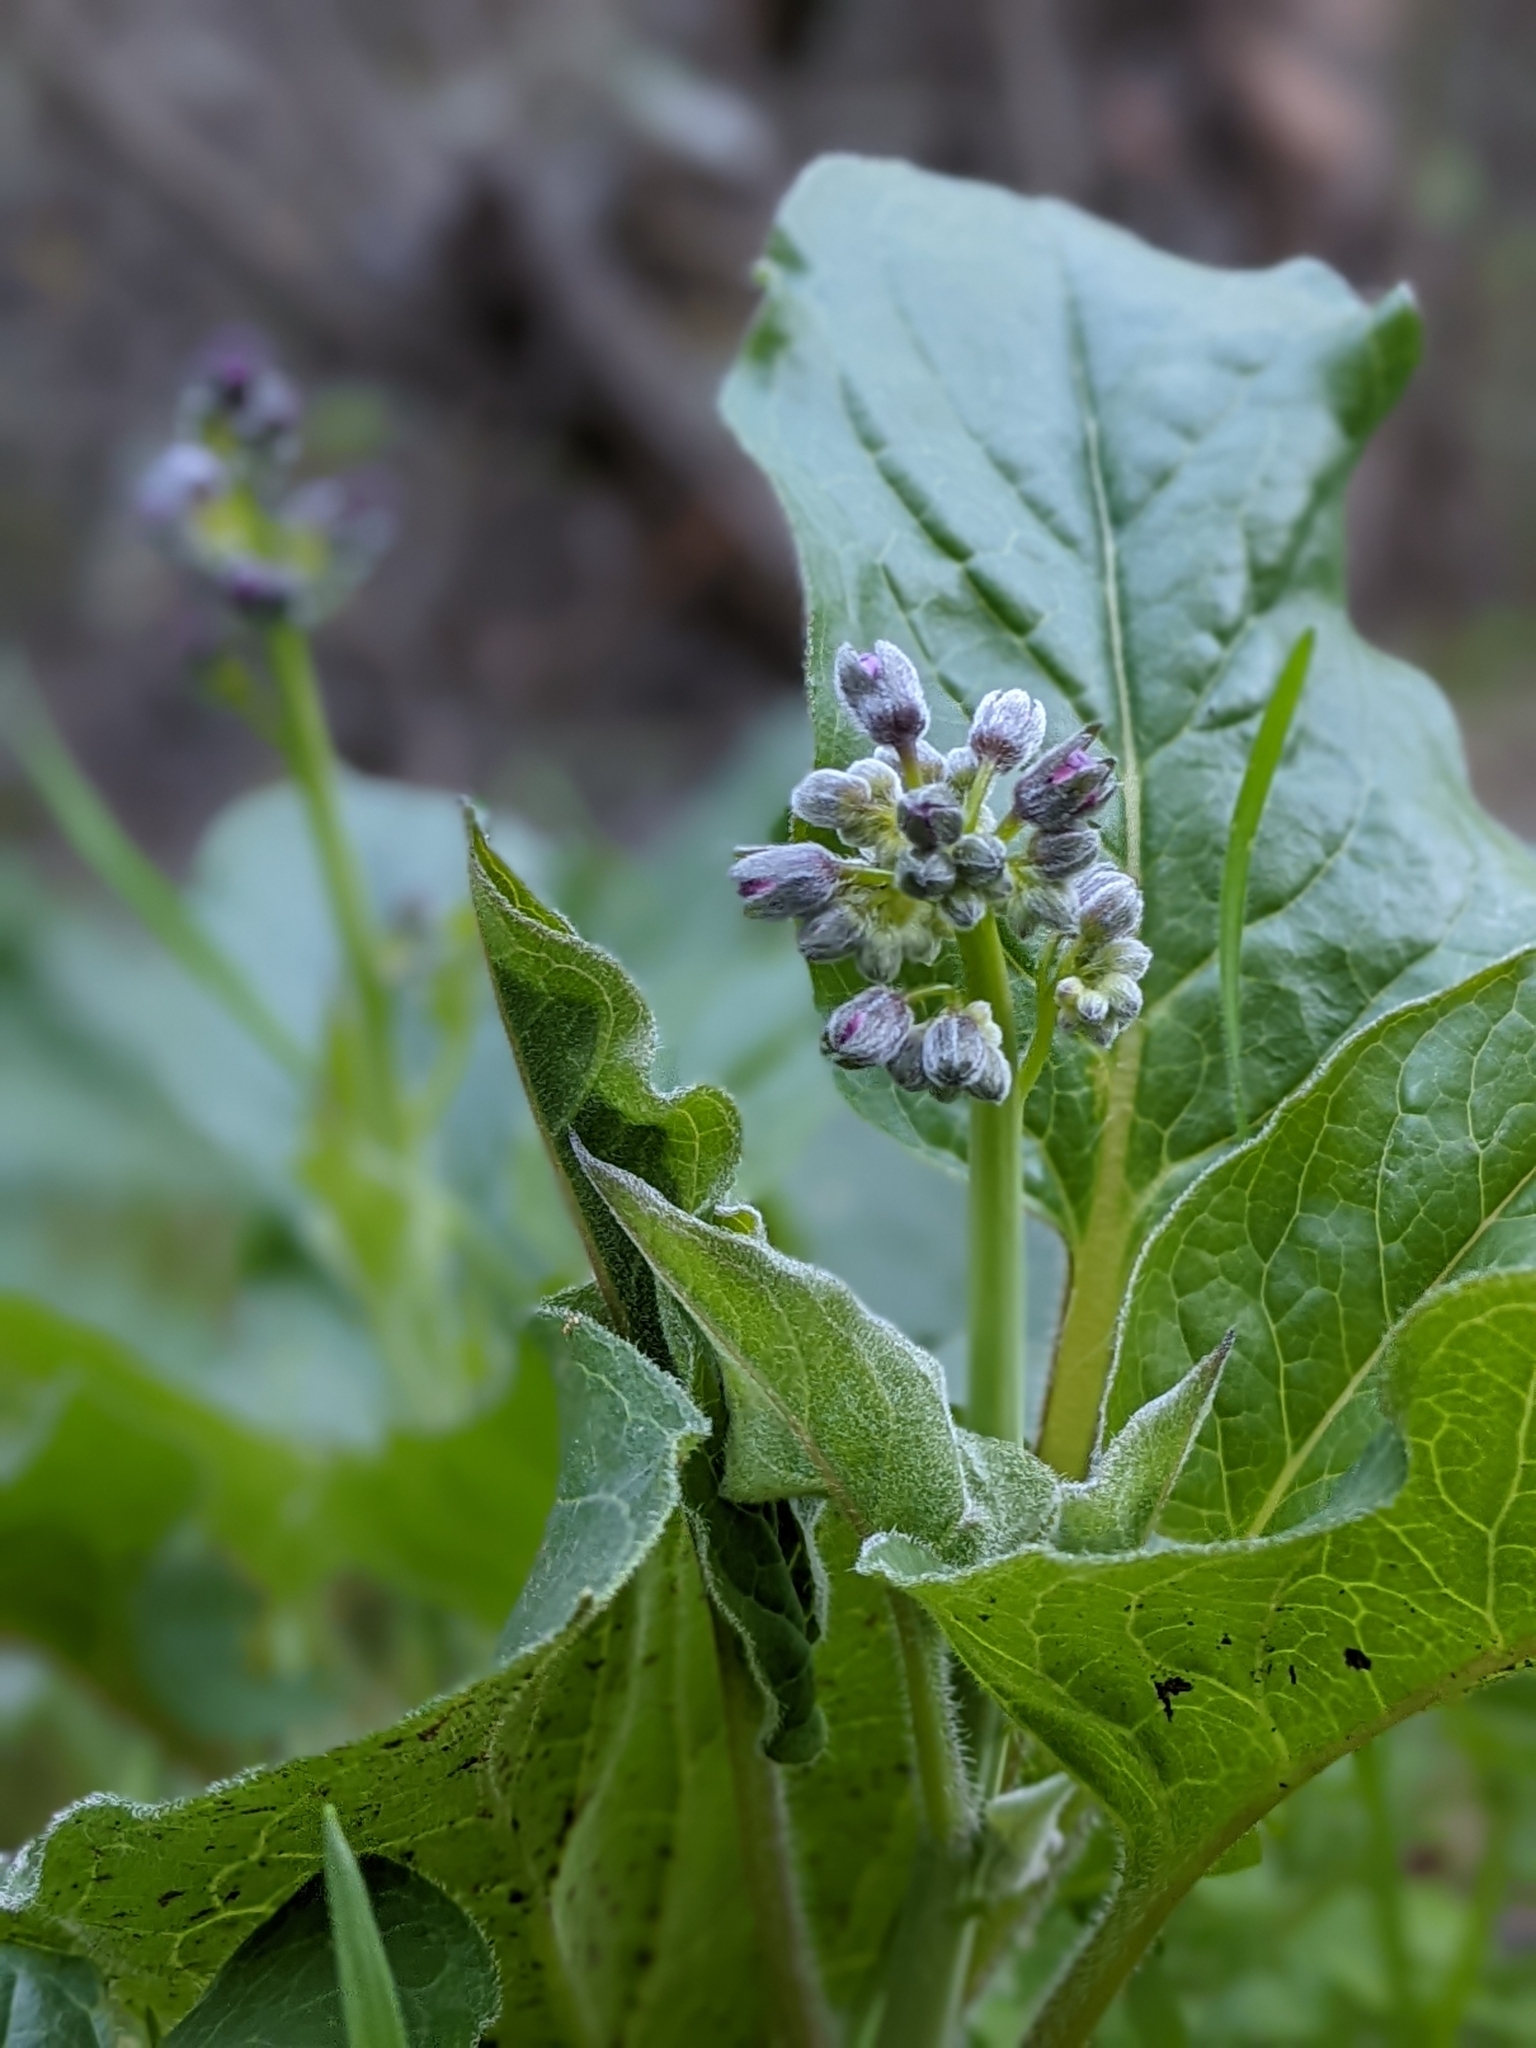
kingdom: Plantae
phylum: Tracheophyta
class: Magnoliopsida
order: Boraginales
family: Boraginaceae
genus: Adelinia
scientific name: Adelinia grande
